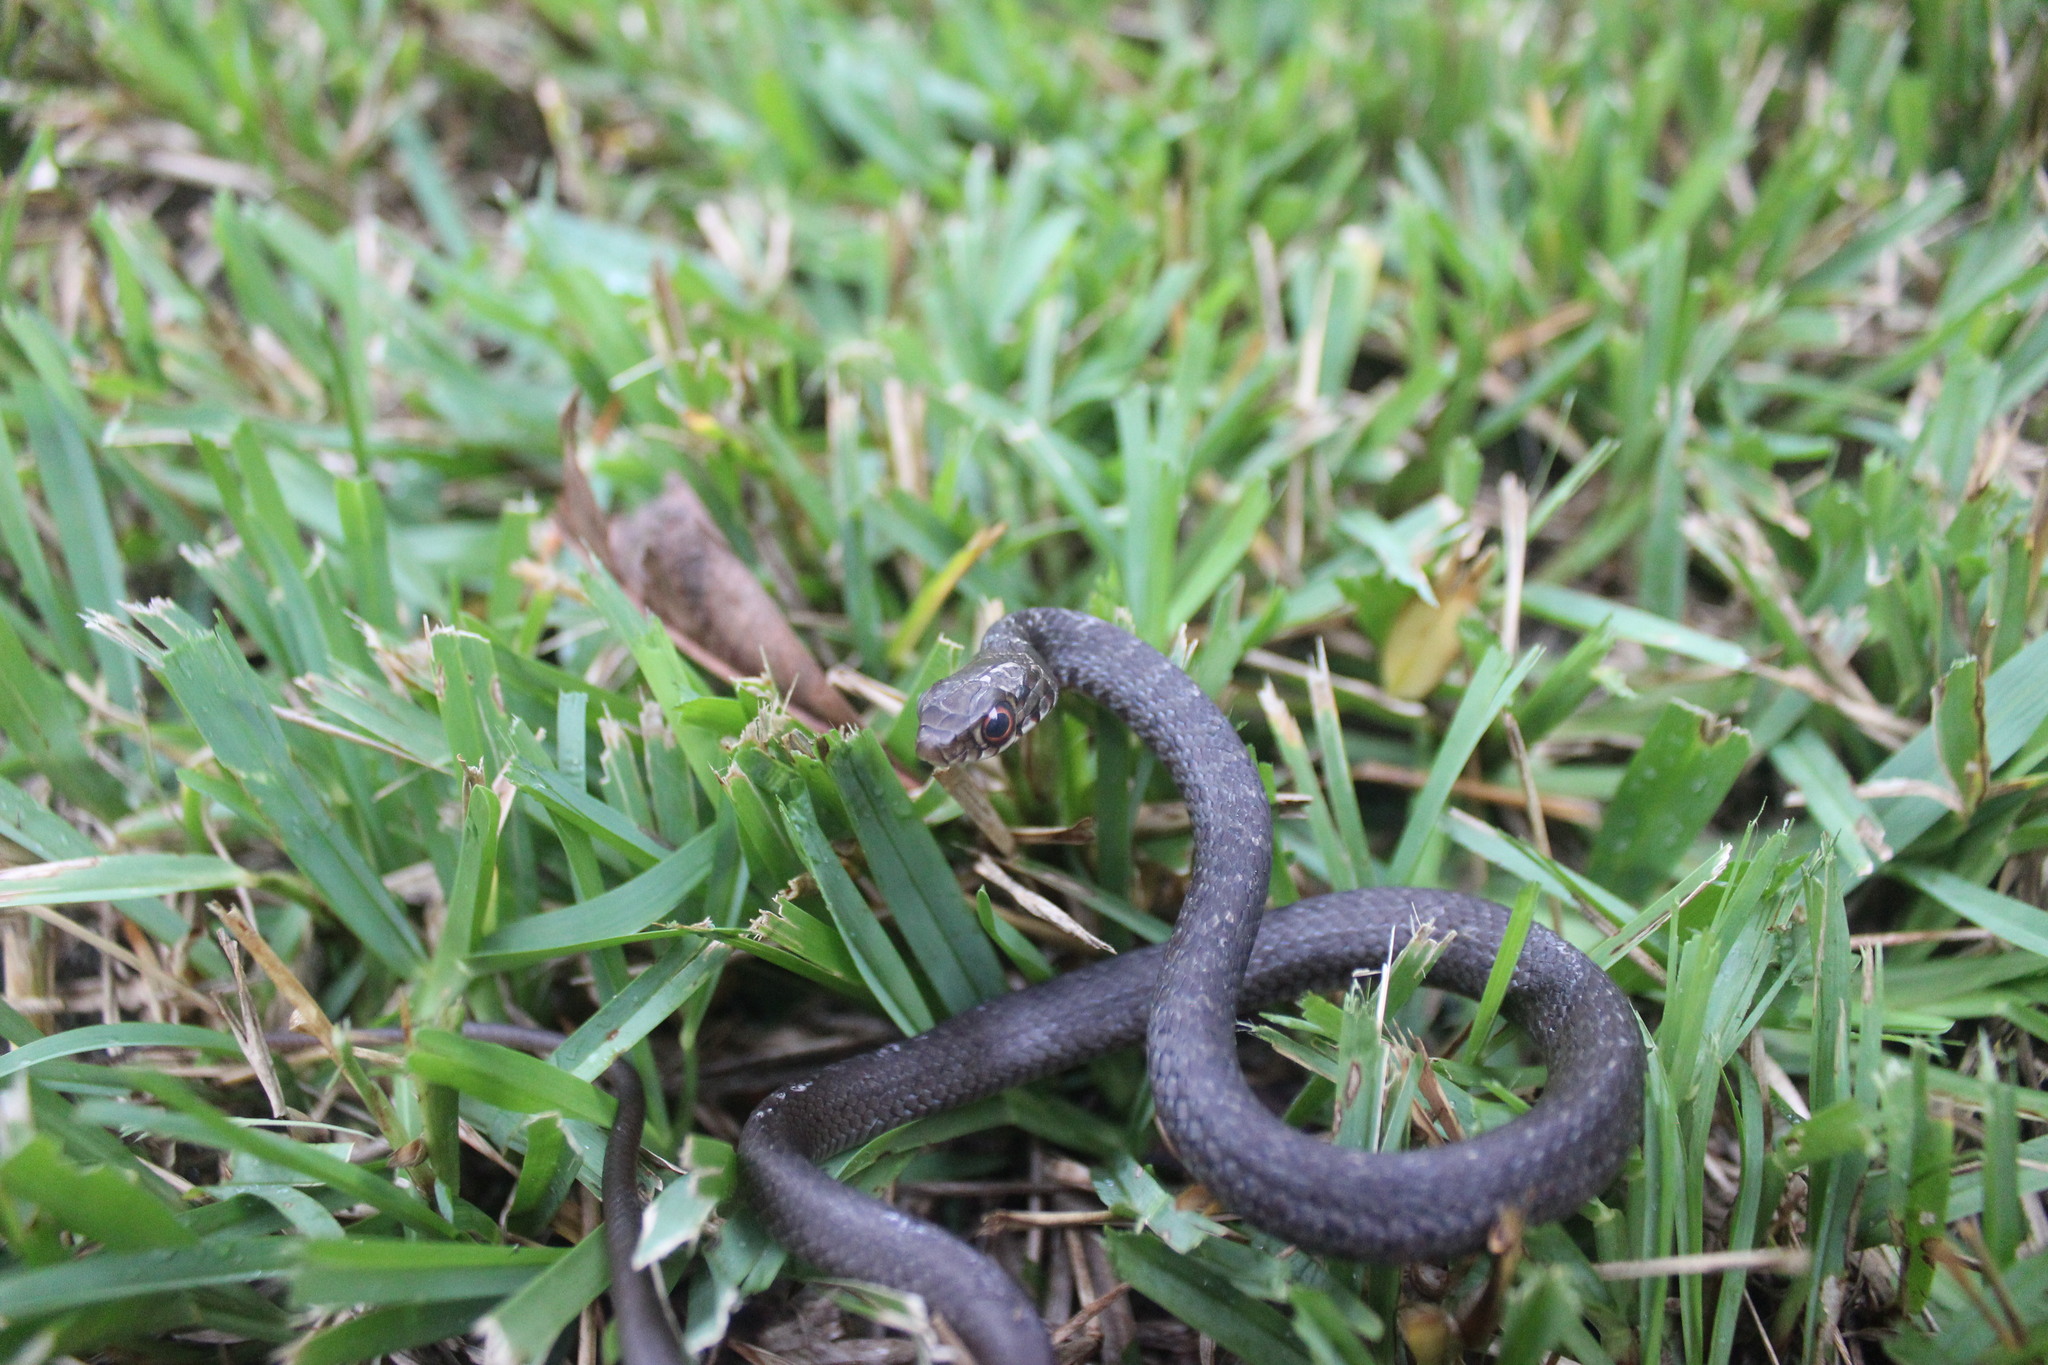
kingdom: Animalia
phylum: Chordata
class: Squamata
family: Colubridae
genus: Coluber
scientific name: Coluber constrictor
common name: Eastern racer
